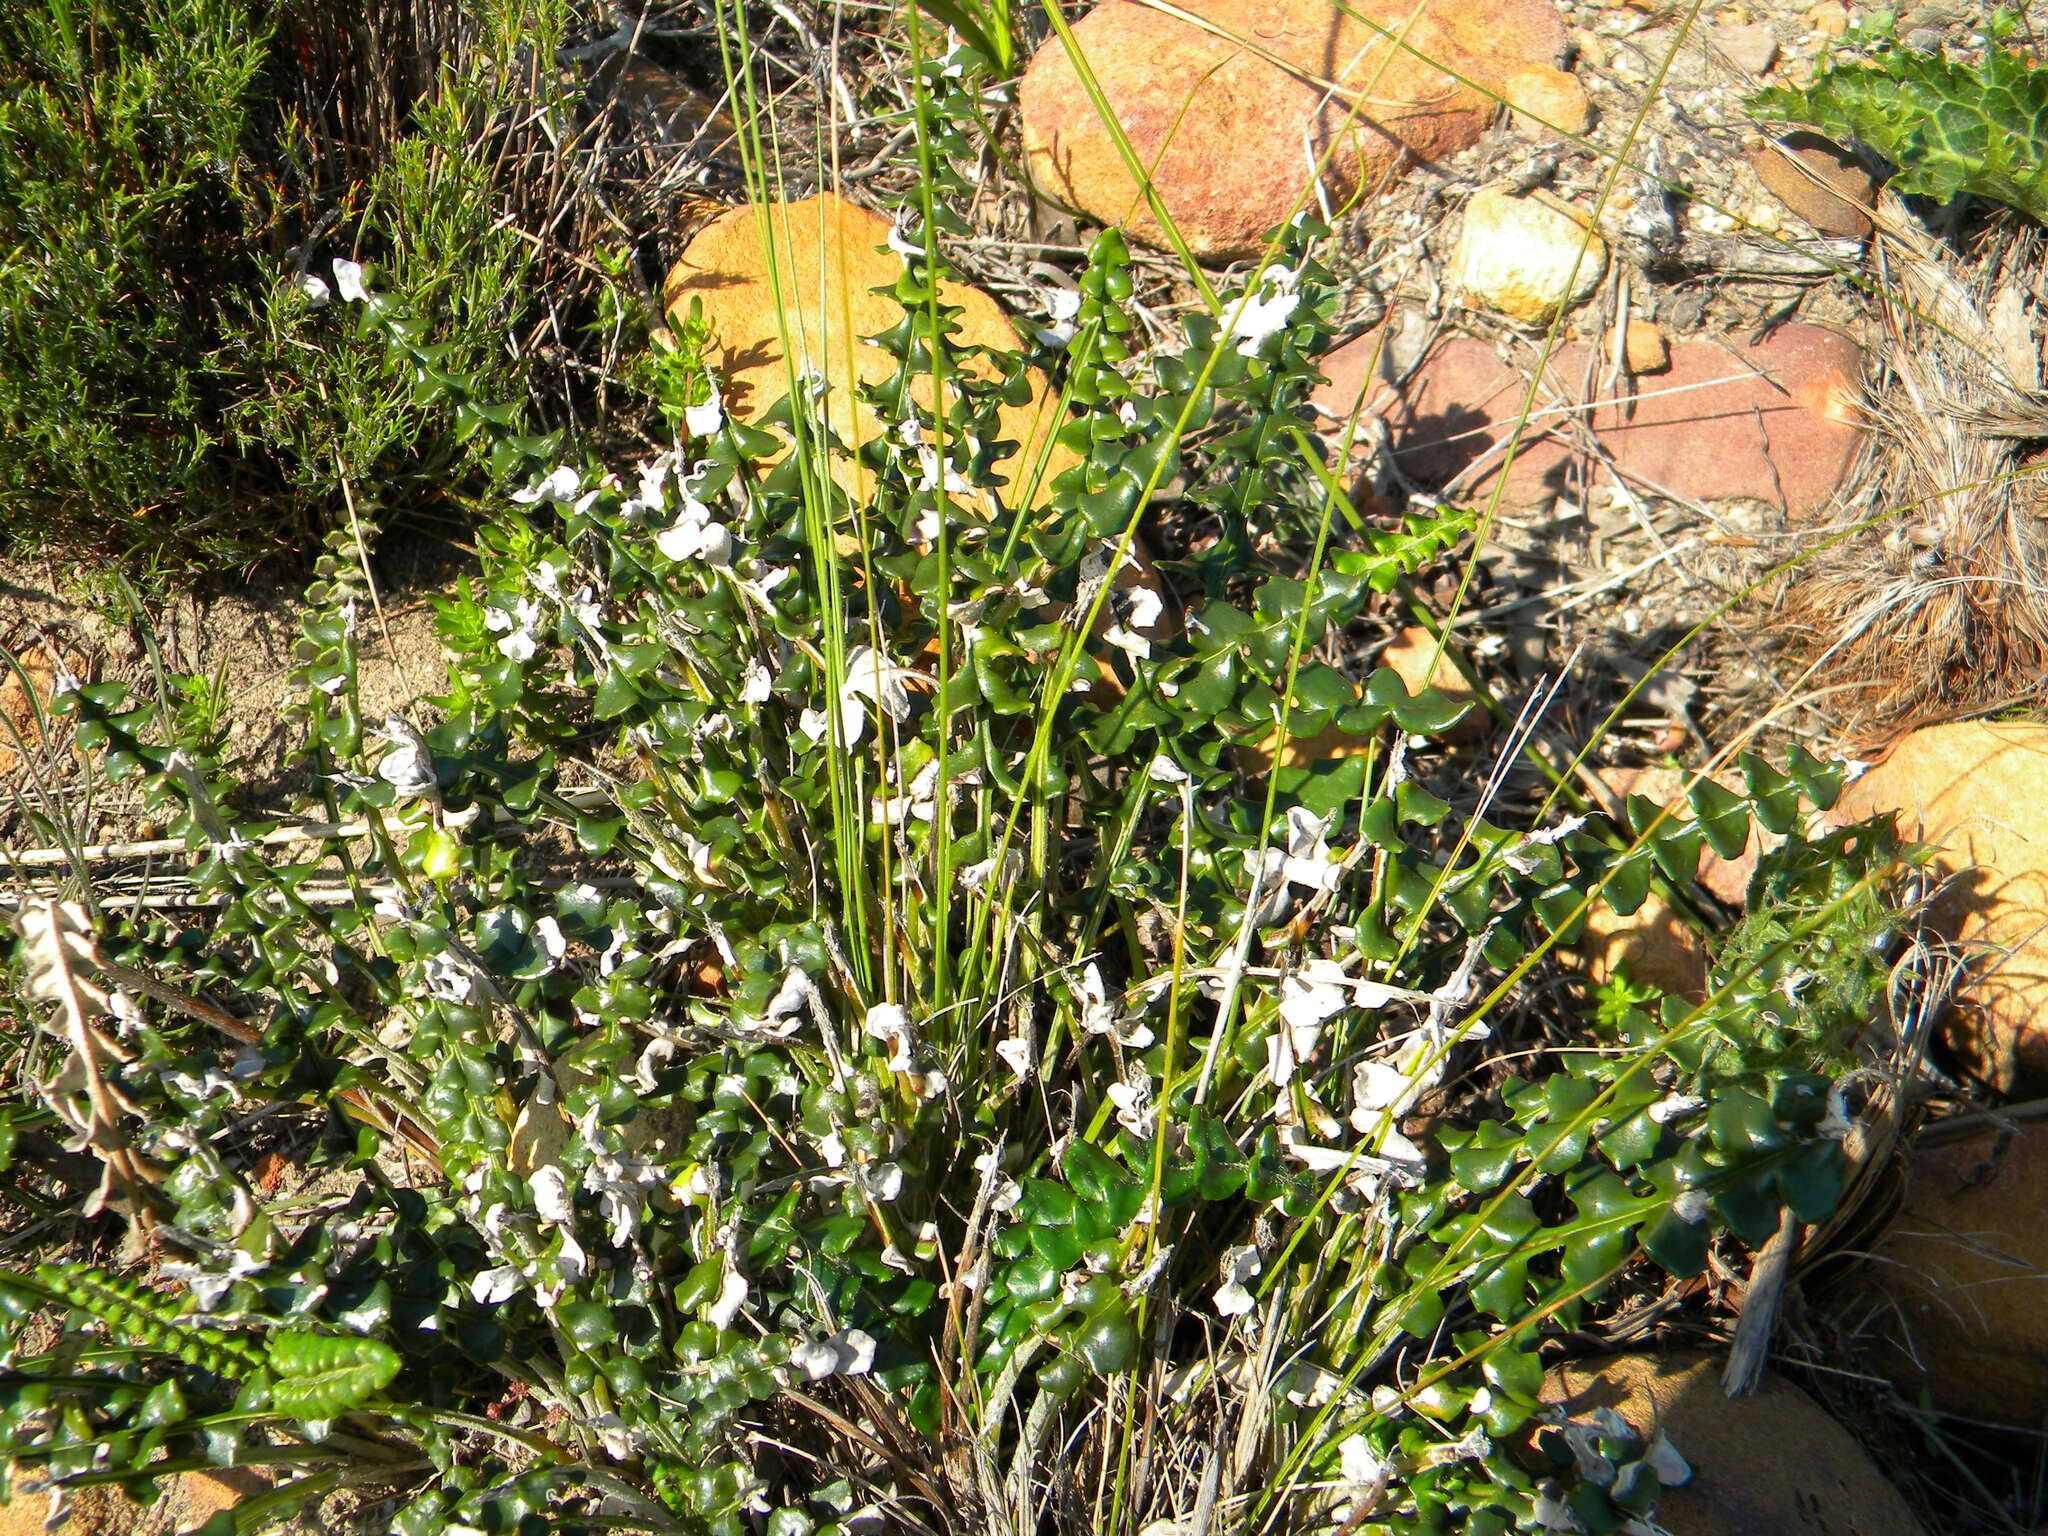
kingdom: Plantae
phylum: Tracheophyta
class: Magnoliopsida
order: Asterales
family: Asteraceae
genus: Gerbera
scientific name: Gerbera linnaei
